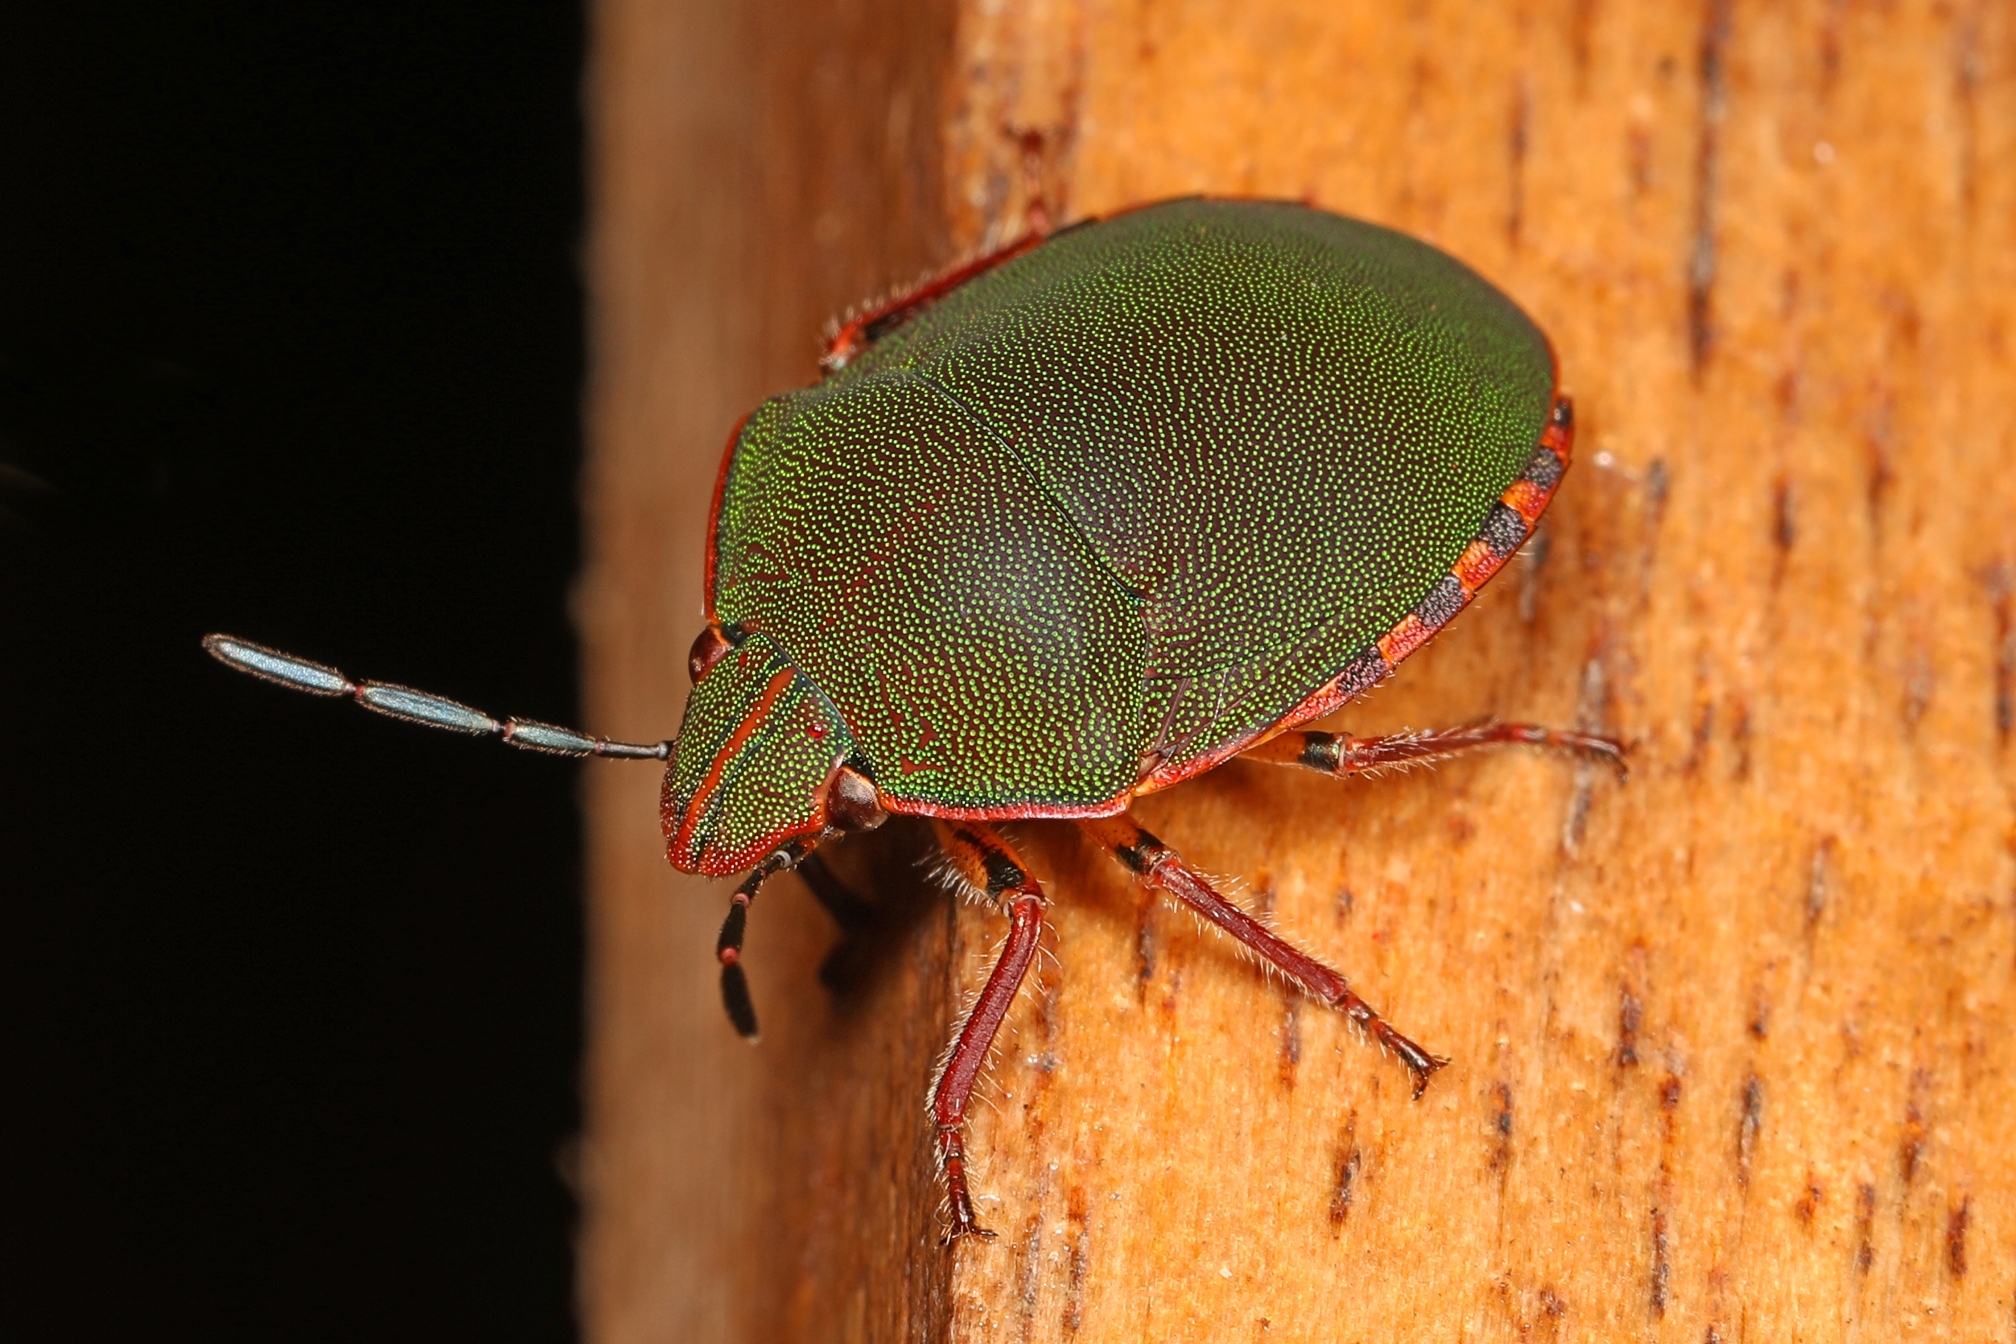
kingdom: Animalia
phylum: Arthropoda
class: Insecta
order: Hemiptera
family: Scutelleridae
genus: Polytes
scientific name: Polytes
